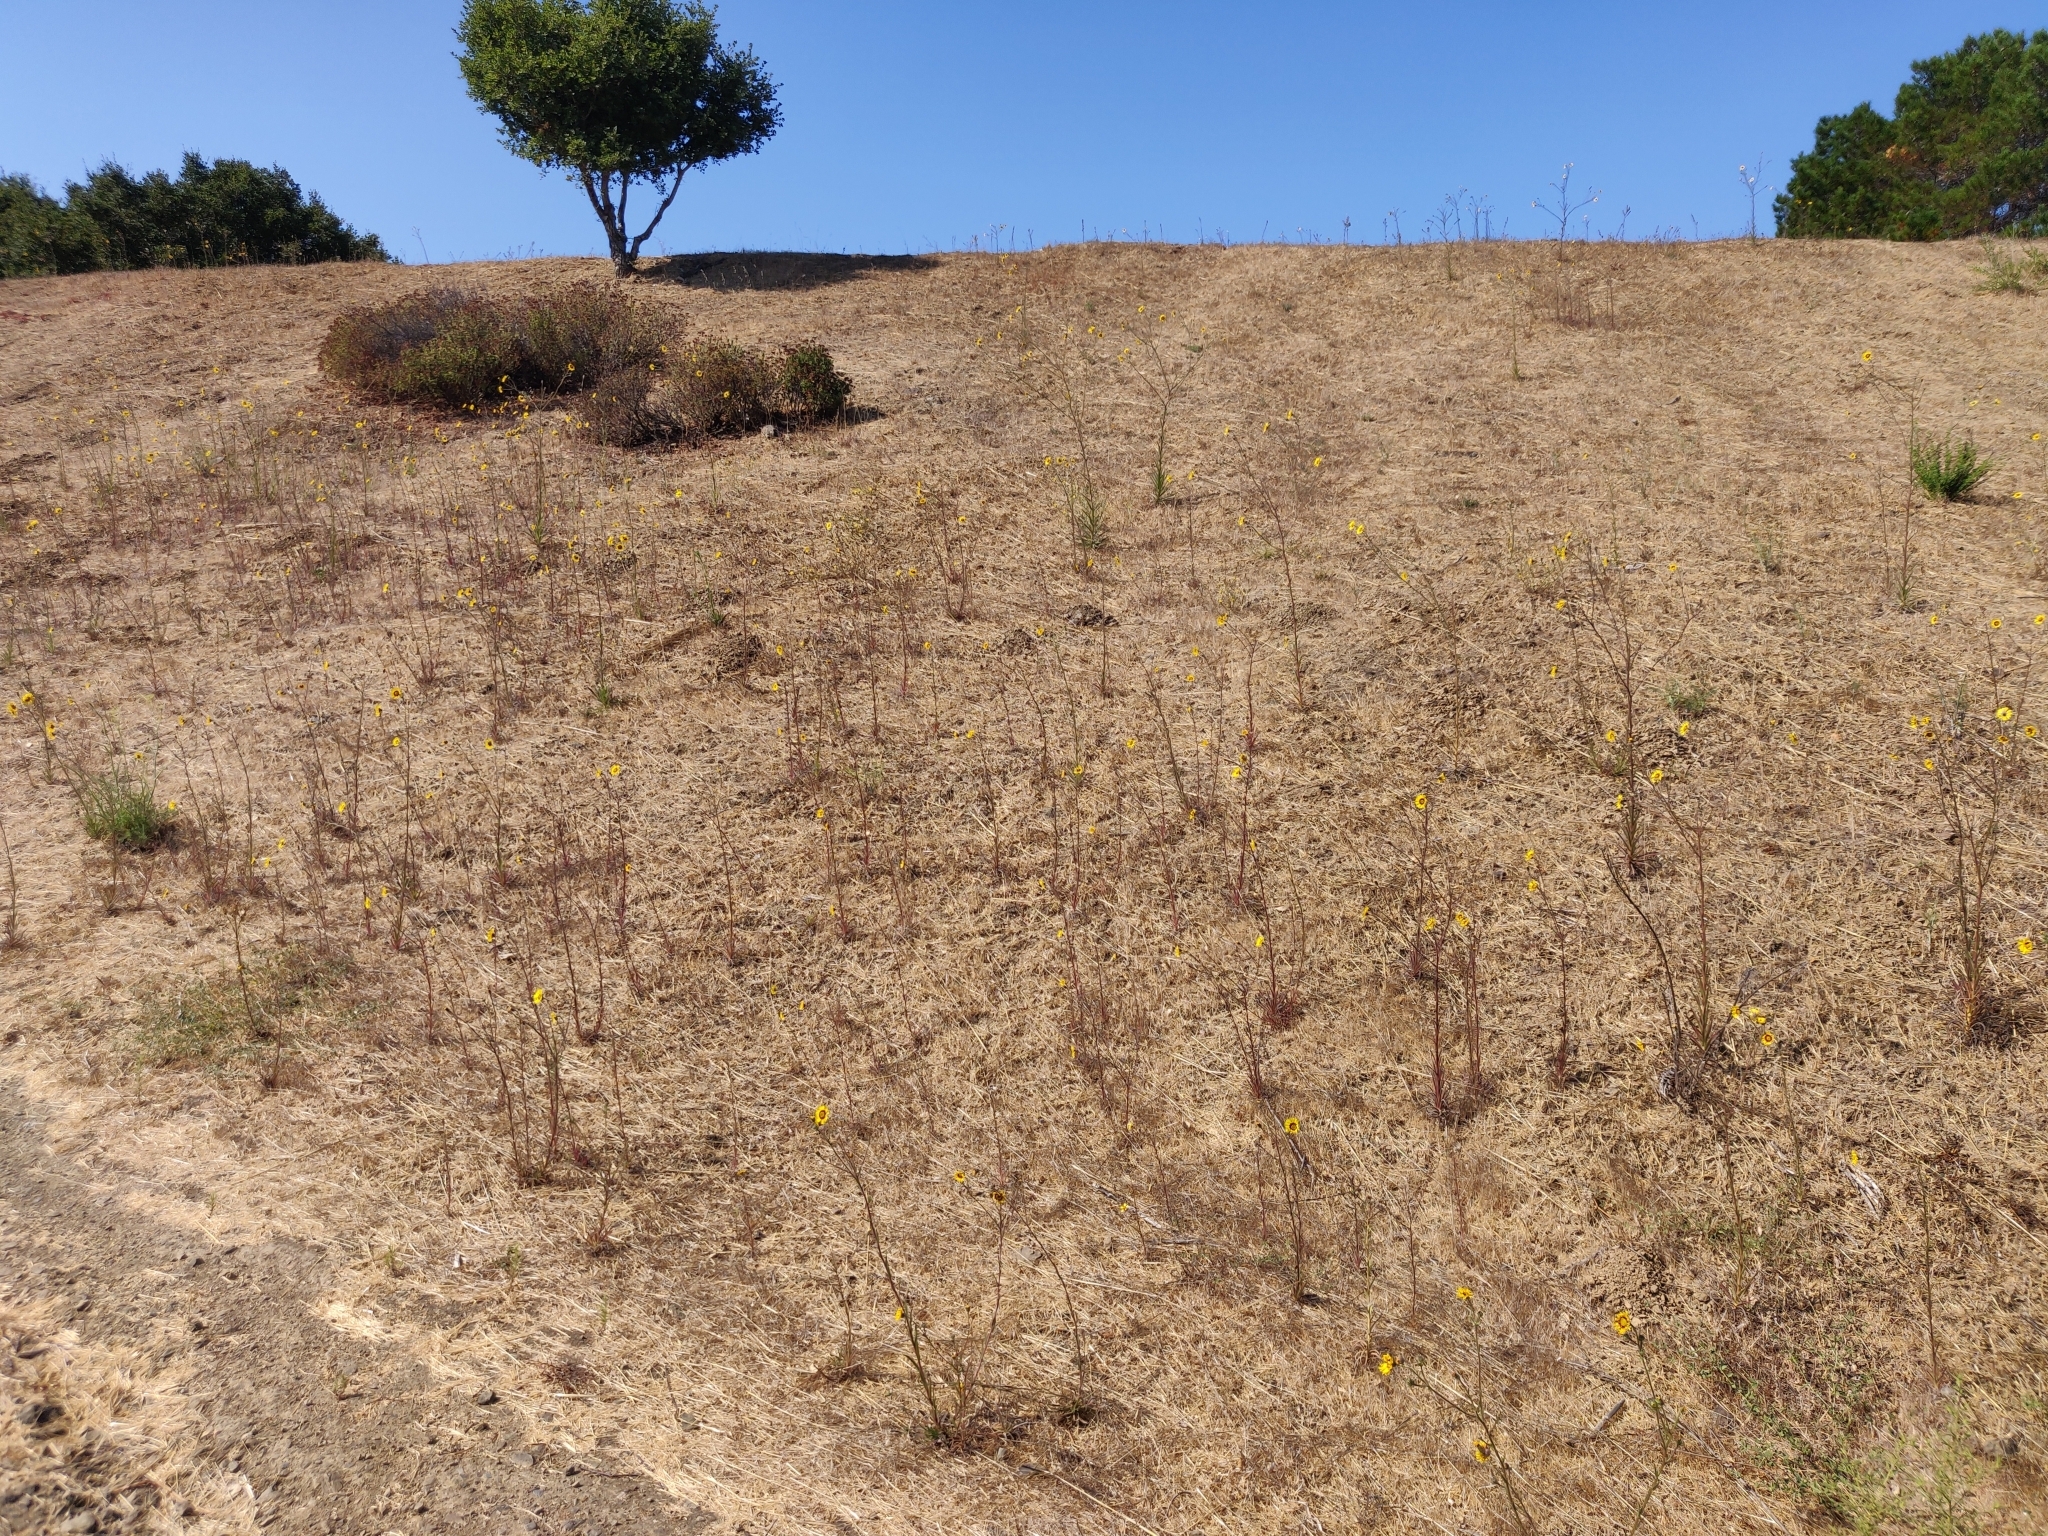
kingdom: Plantae
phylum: Tracheophyta
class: Magnoliopsida
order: Asterales
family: Asteraceae
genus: Madia
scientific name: Madia elegans
